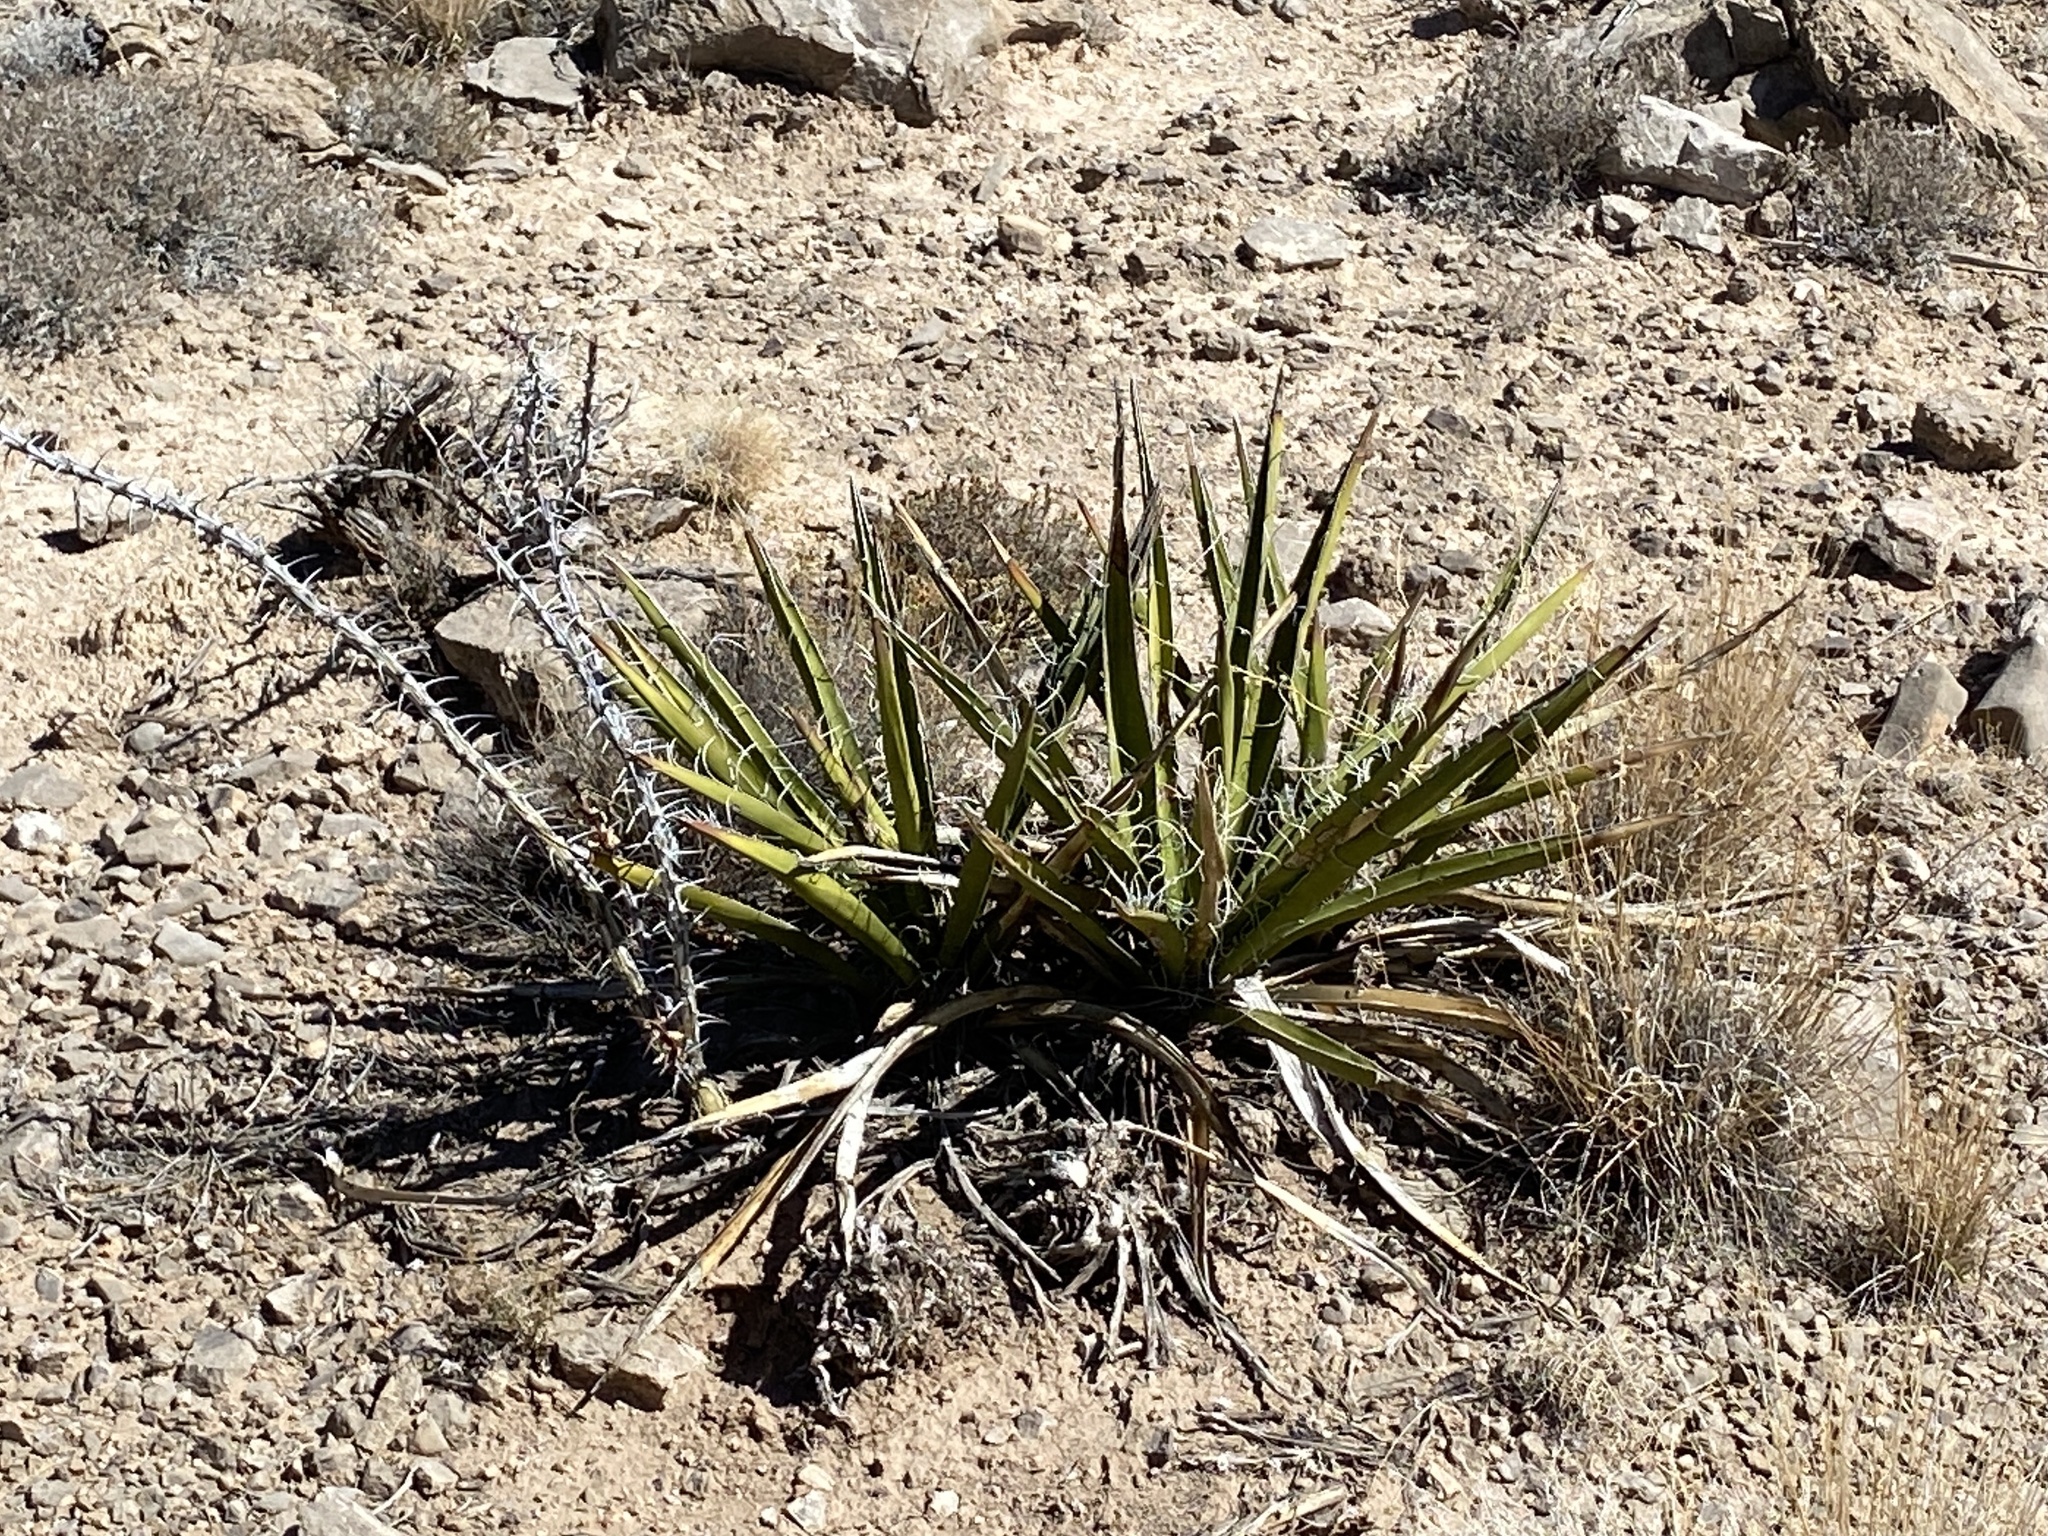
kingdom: Plantae
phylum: Tracheophyta
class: Liliopsida
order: Asparagales
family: Asparagaceae
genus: Yucca
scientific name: Yucca baccata
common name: Banana yucca
